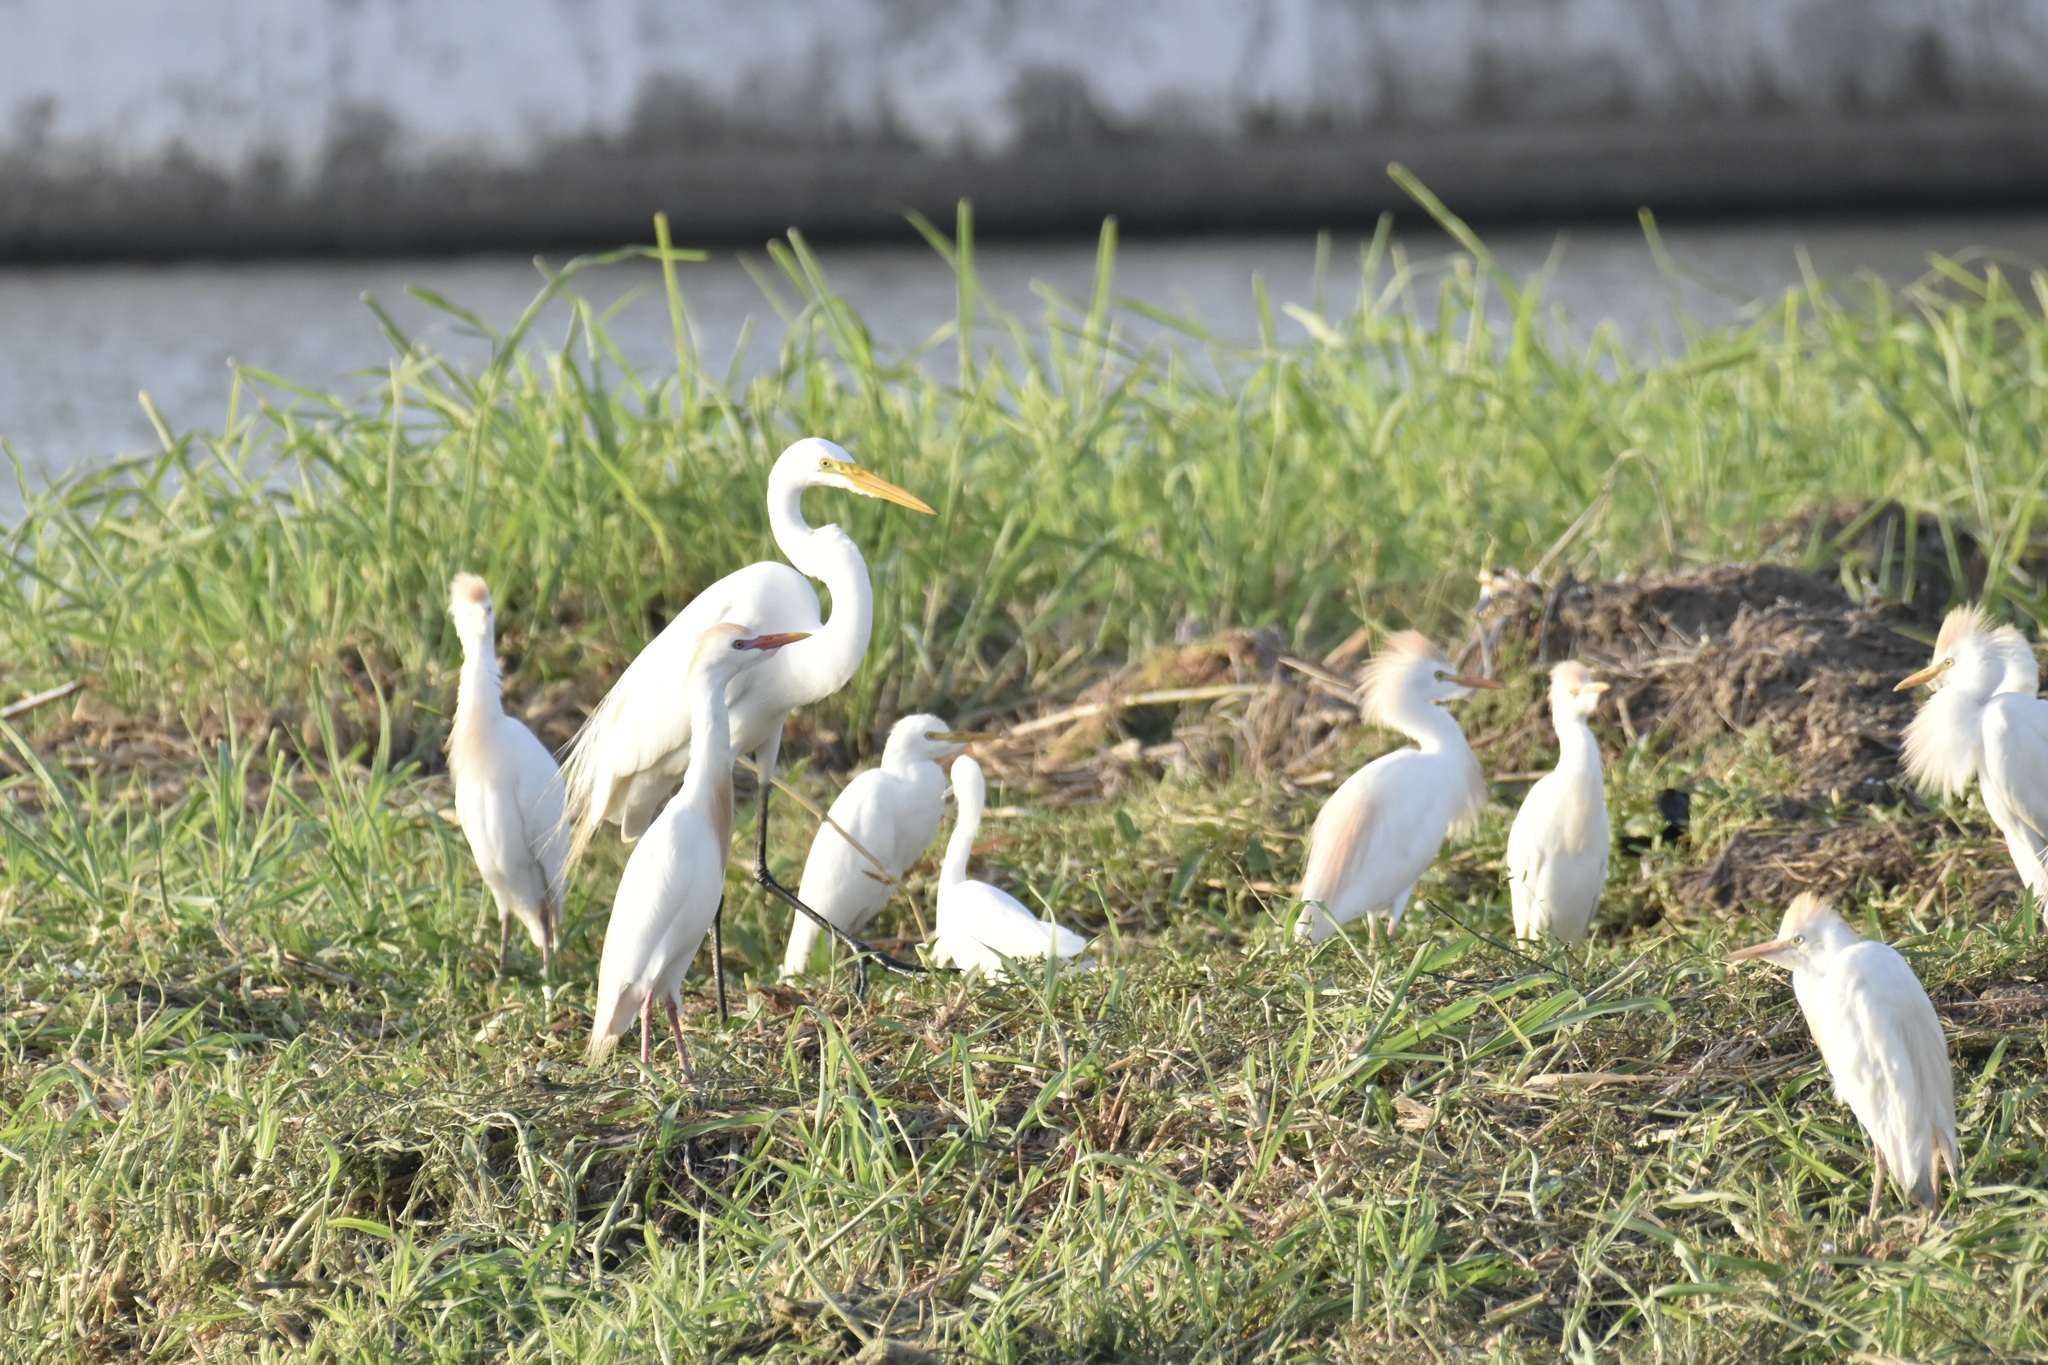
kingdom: Animalia
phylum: Chordata
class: Aves
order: Pelecaniformes
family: Ardeidae
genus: Bubulcus
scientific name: Bubulcus ibis
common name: Cattle egret
